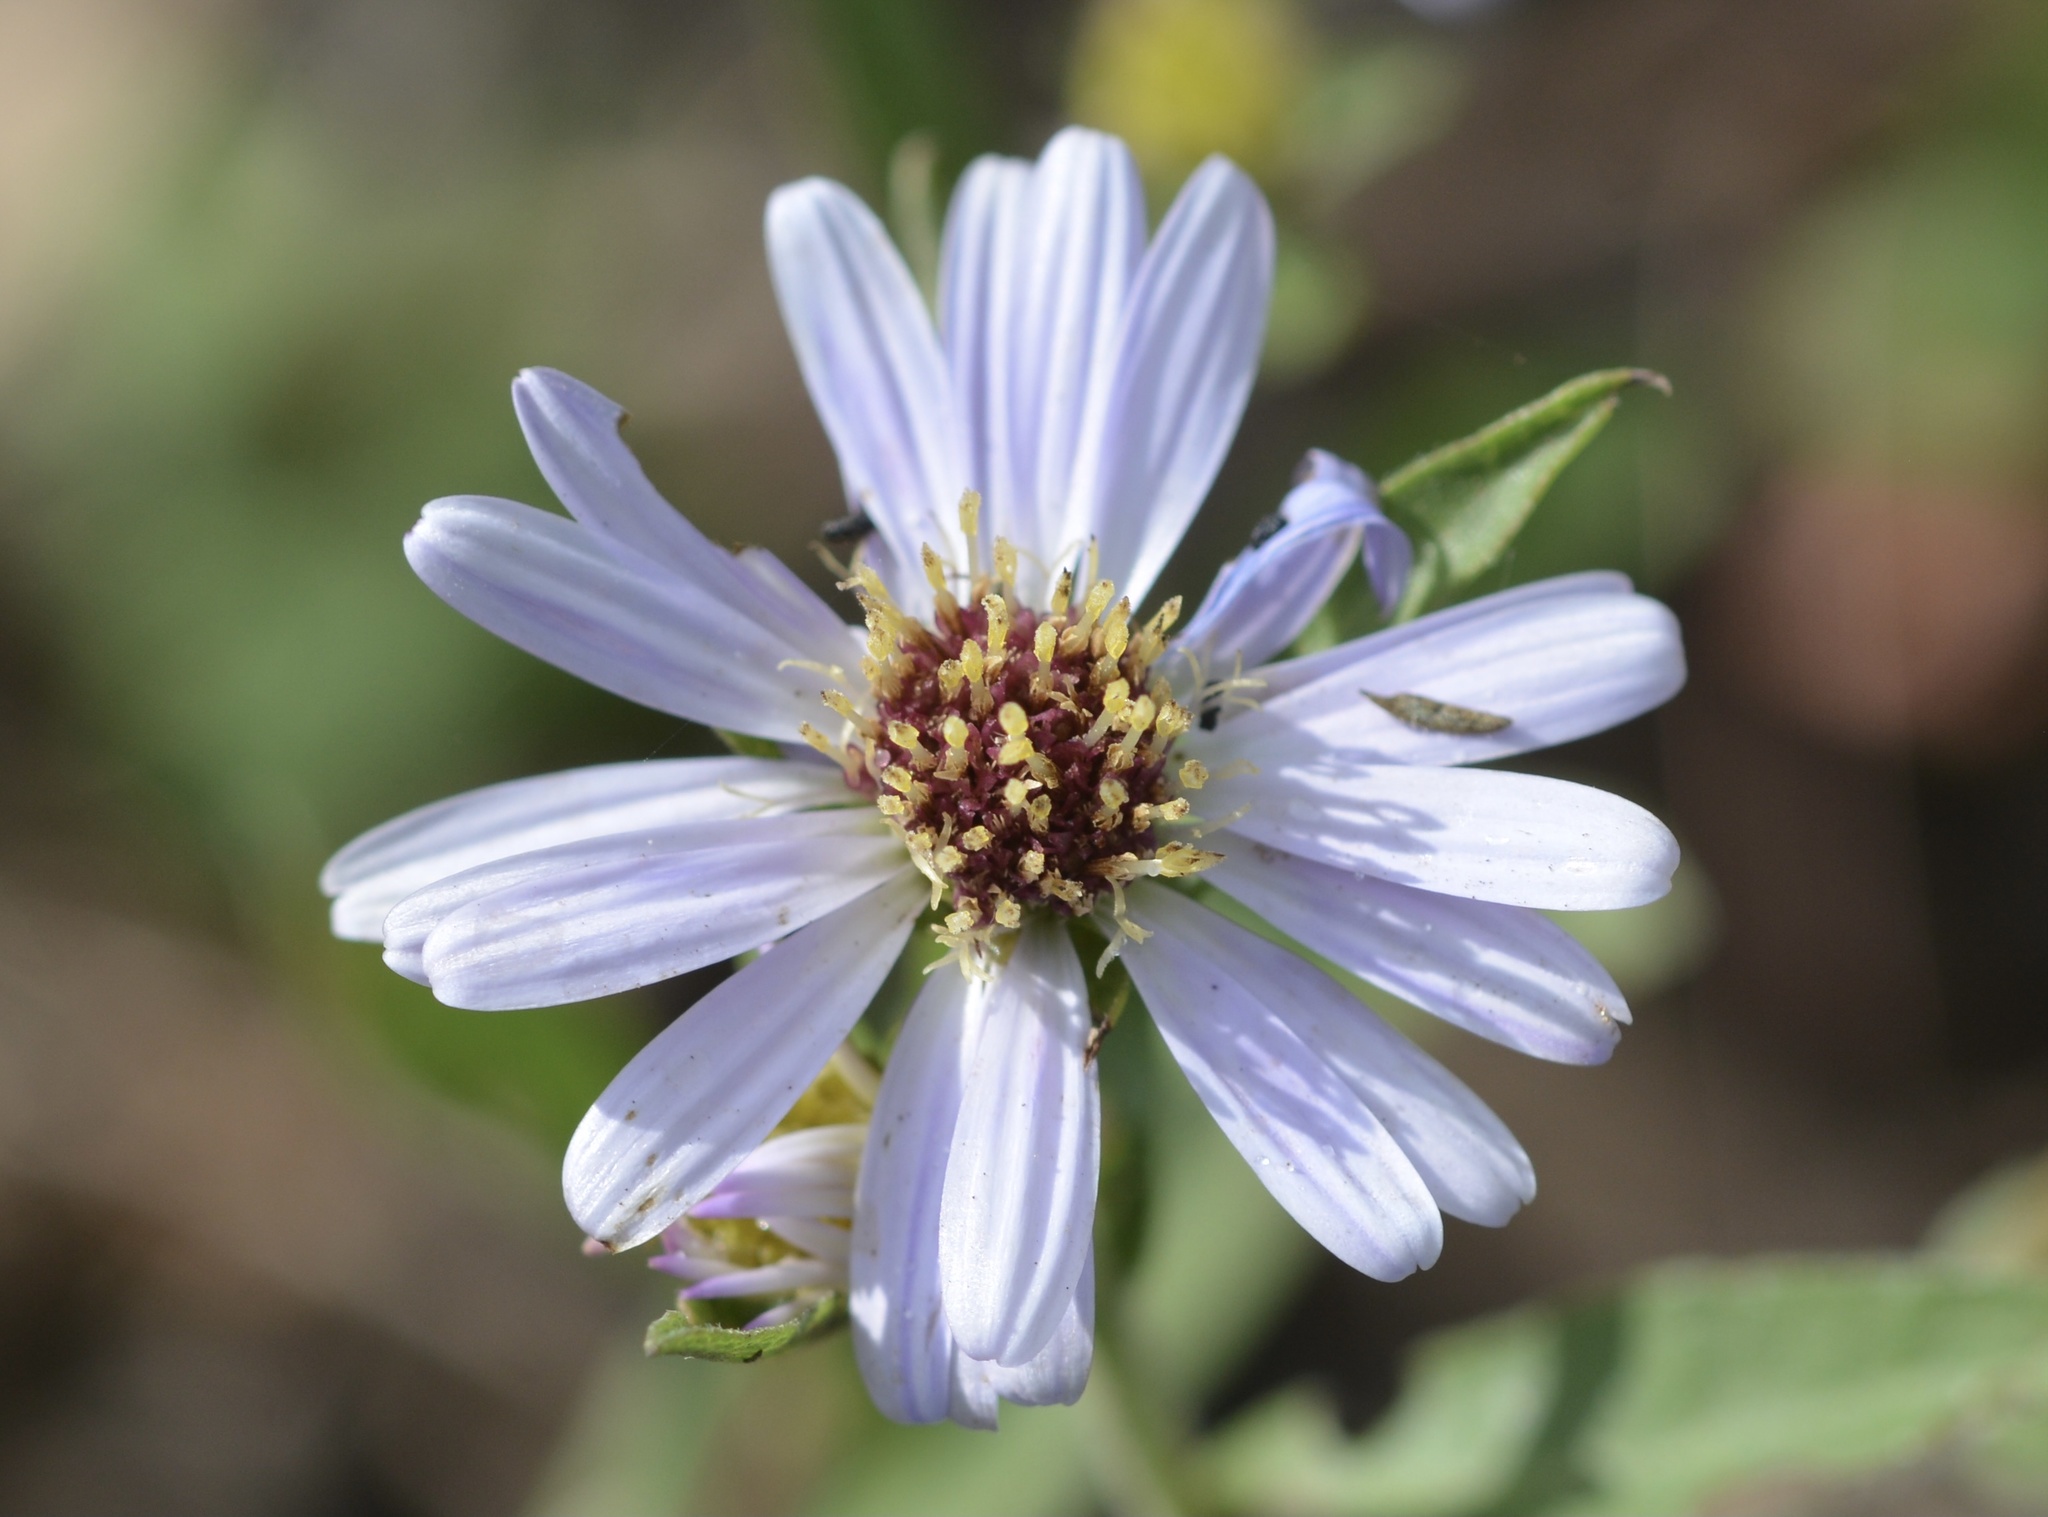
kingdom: Plantae
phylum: Tracheophyta
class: Magnoliopsida
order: Asterales
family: Asteraceae
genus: Symphyotrichum
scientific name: Symphyotrichum chilense
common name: Pacific aster
